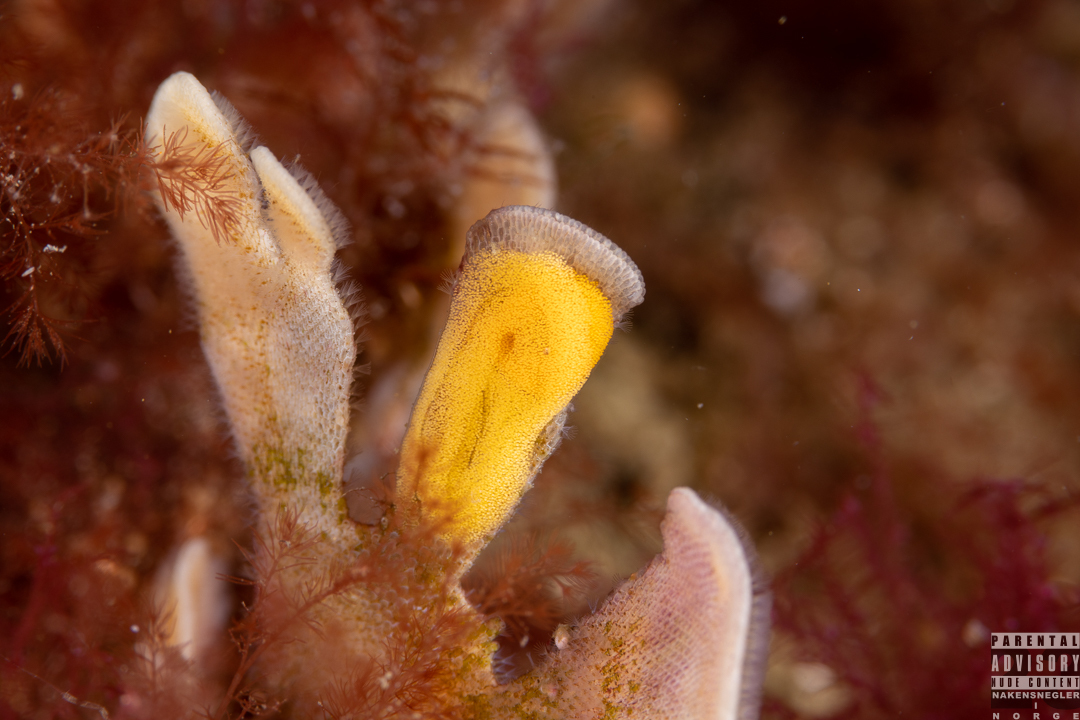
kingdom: Animalia
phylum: Mollusca
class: Gastropoda
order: Nudibranchia
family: Polyceridae
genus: Crimora
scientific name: Crimora papillata
